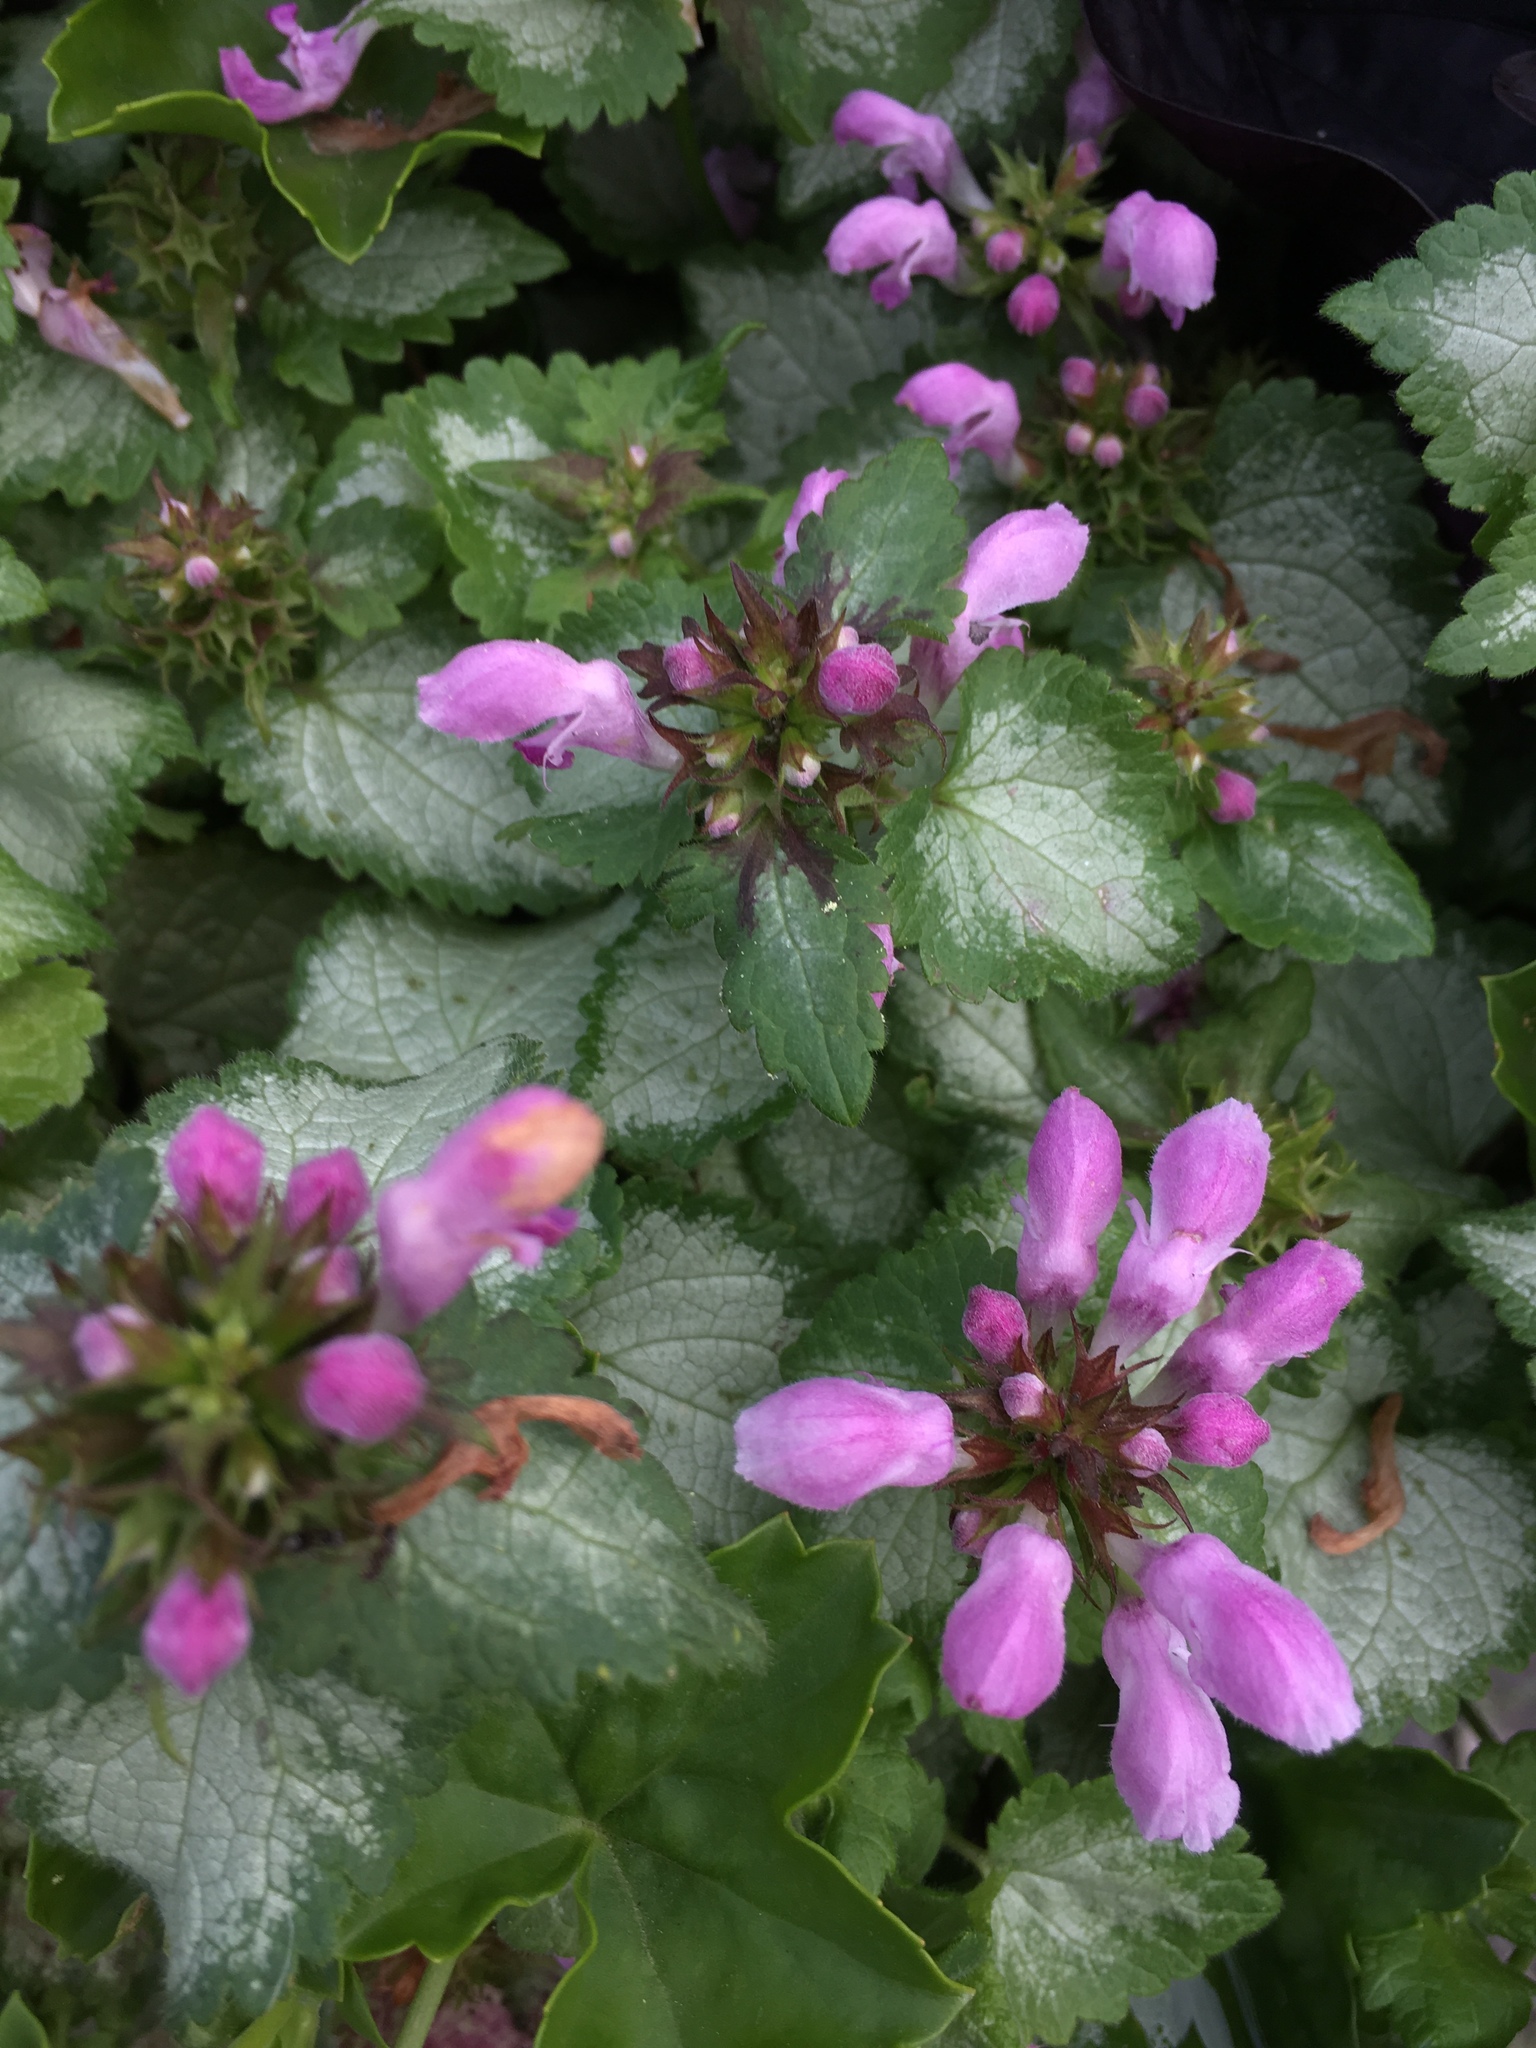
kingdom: Plantae
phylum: Tracheophyta
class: Magnoliopsida
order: Lamiales
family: Lamiaceae
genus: Lamium
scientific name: Lamium maculatum
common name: Spotted dead-nettle
